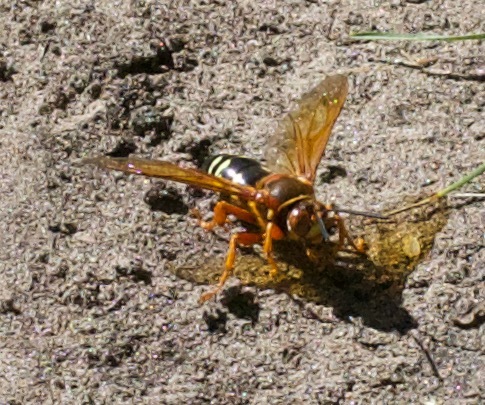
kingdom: Animalia
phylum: Arthropoda
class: Insecta
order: Hymenoptera
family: Crabronidae
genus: Sphecius
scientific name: Sphecius speciosus
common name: Cicada killer
